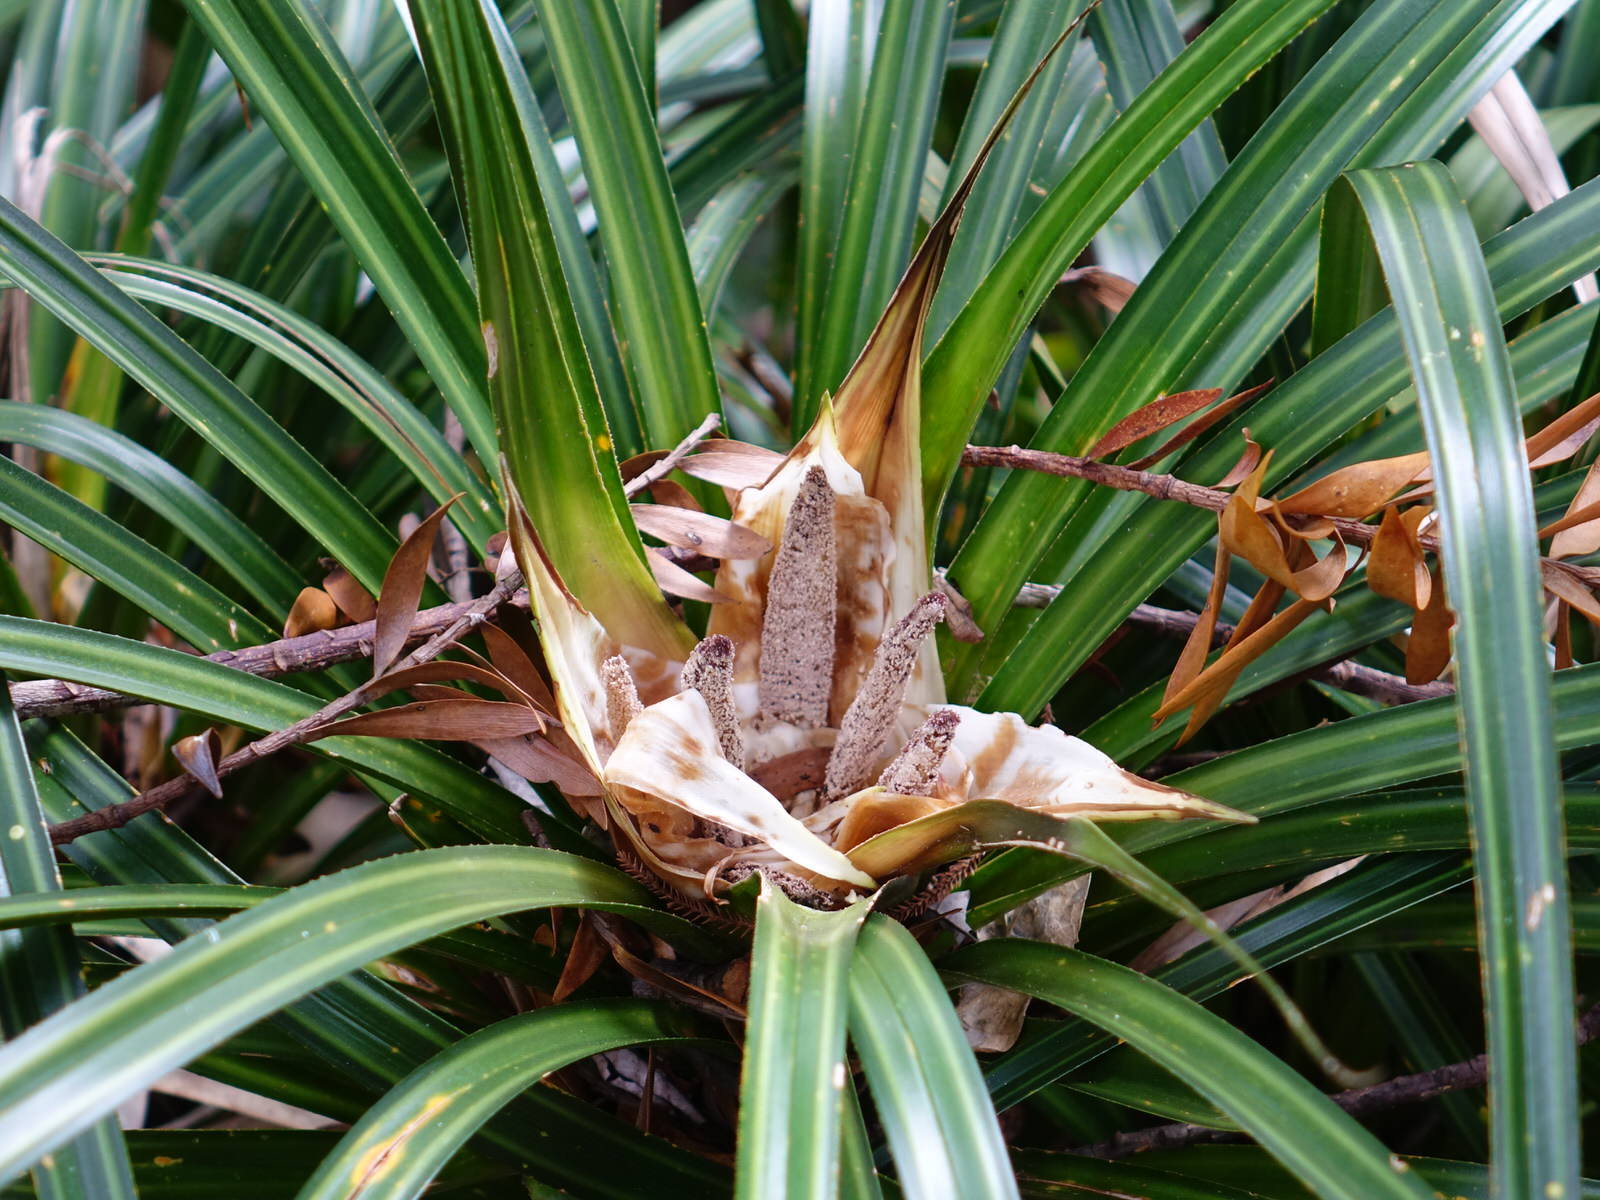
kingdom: Plantae
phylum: Tracheophyta
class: Liliopsida
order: Pandanales
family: Pandanaceae
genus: Freycinetia
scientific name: Freycinetia banksii
